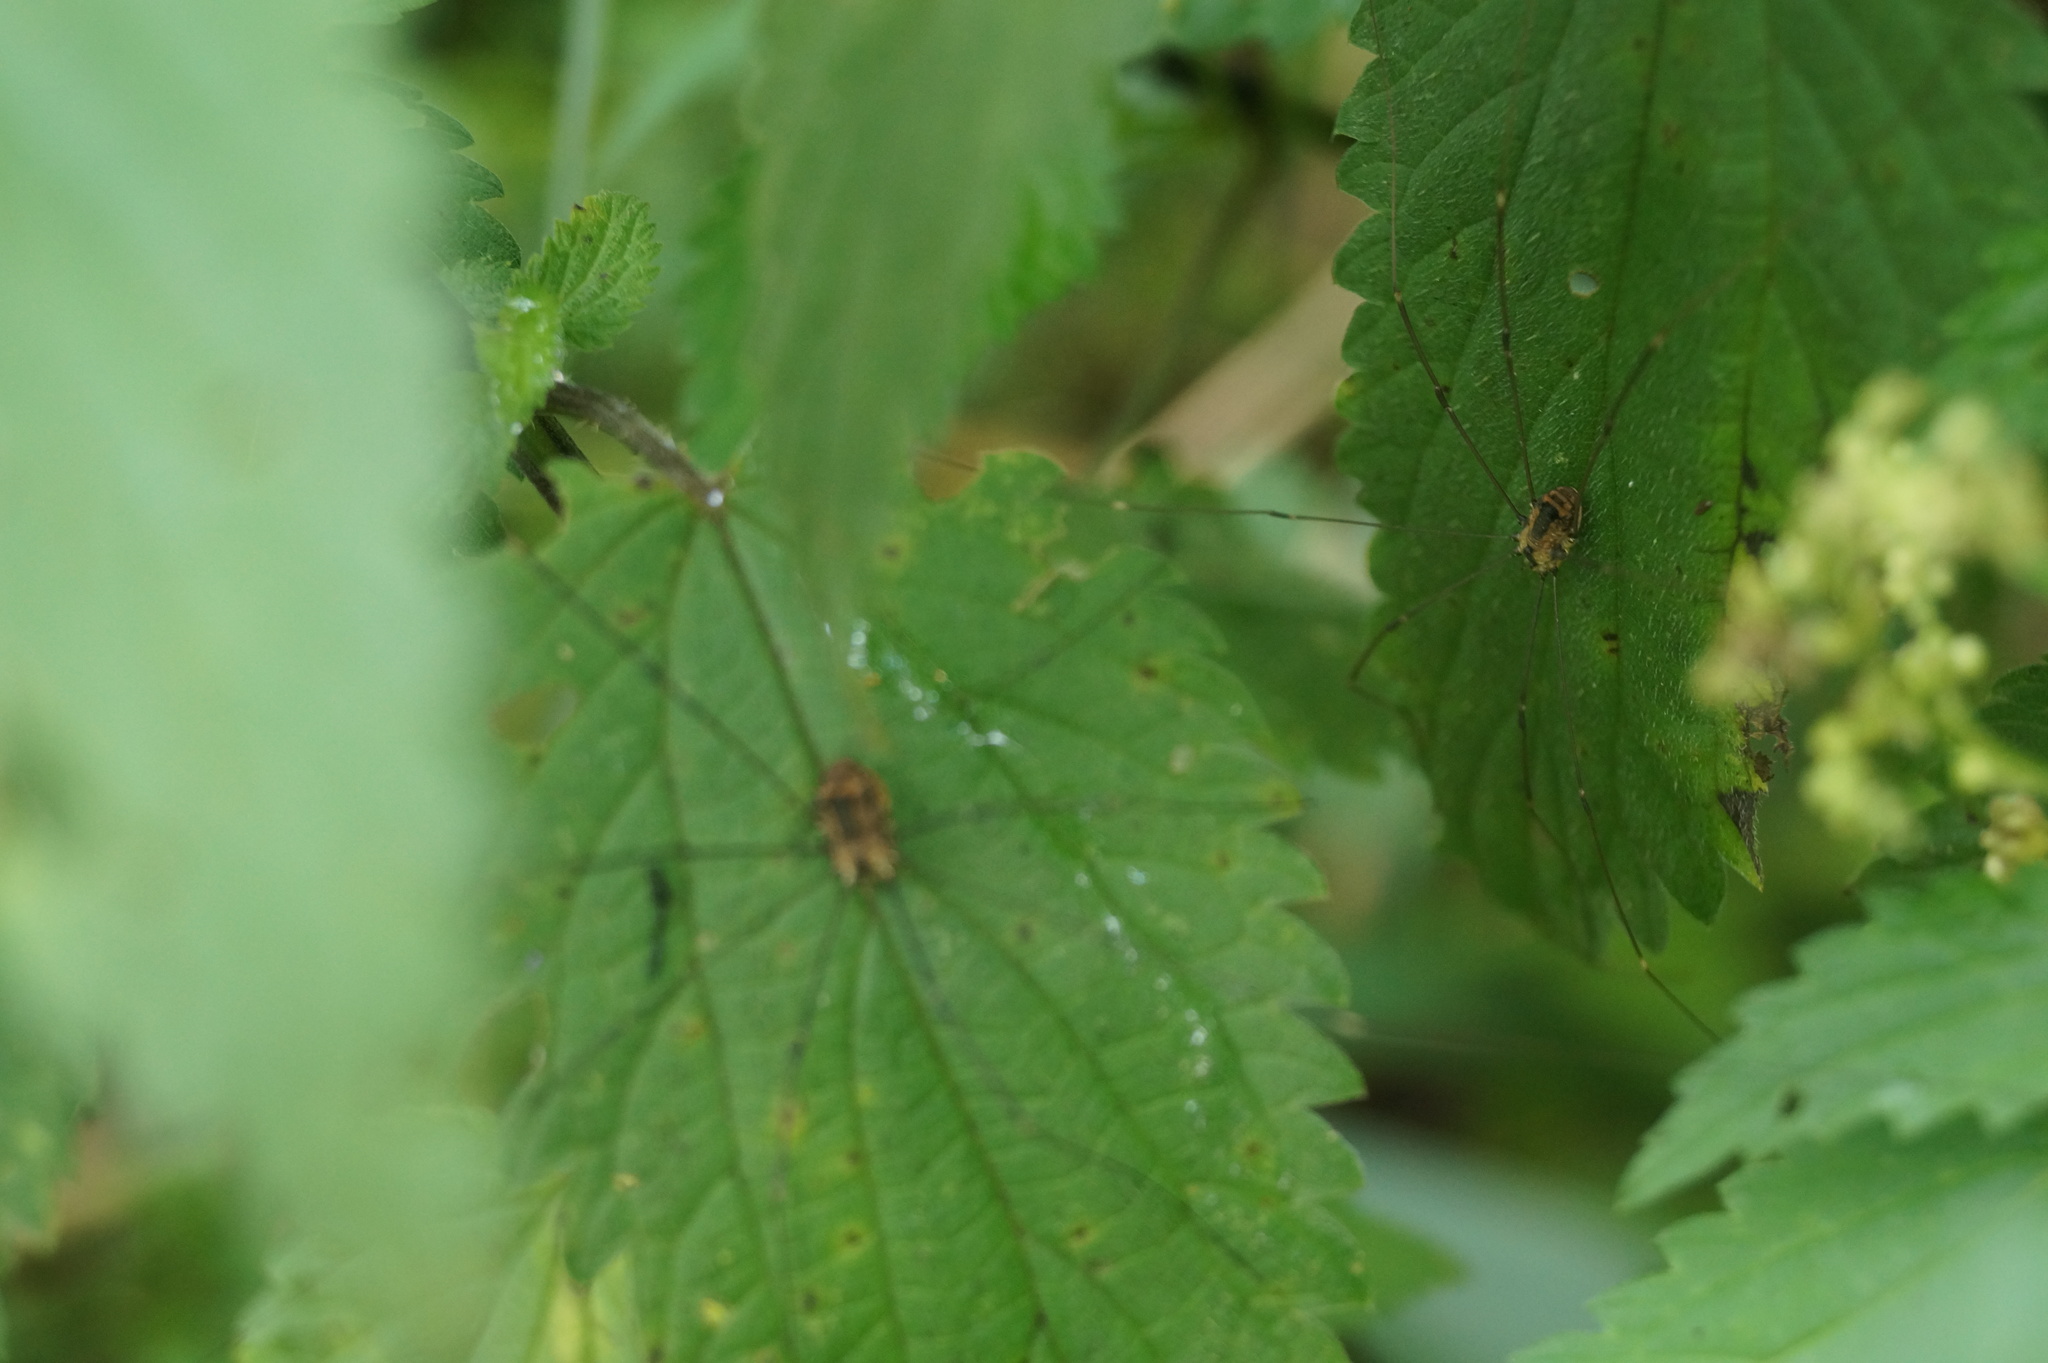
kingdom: Animalia
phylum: Arthropoda
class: Arachnida
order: Opiliones
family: Sclerosomatidae
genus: Leiobunum
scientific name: Leiobunum rotundum
